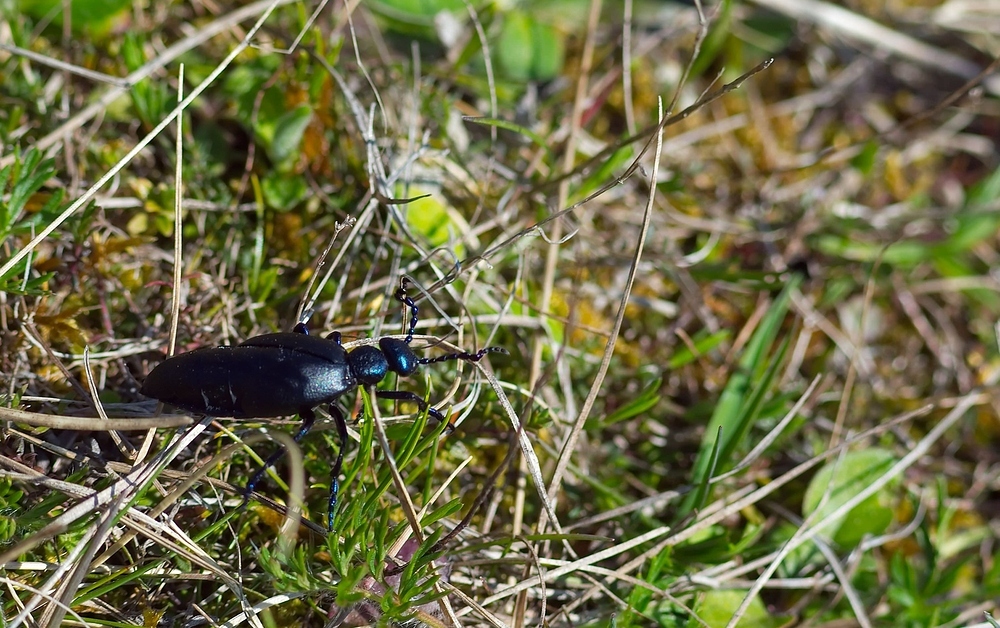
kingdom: Animalia
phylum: Arthropoda
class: Insecta
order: Coleoptera
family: Meloidae
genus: Meloe
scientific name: Meloe proscarabaeus
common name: Black oil-beetle
